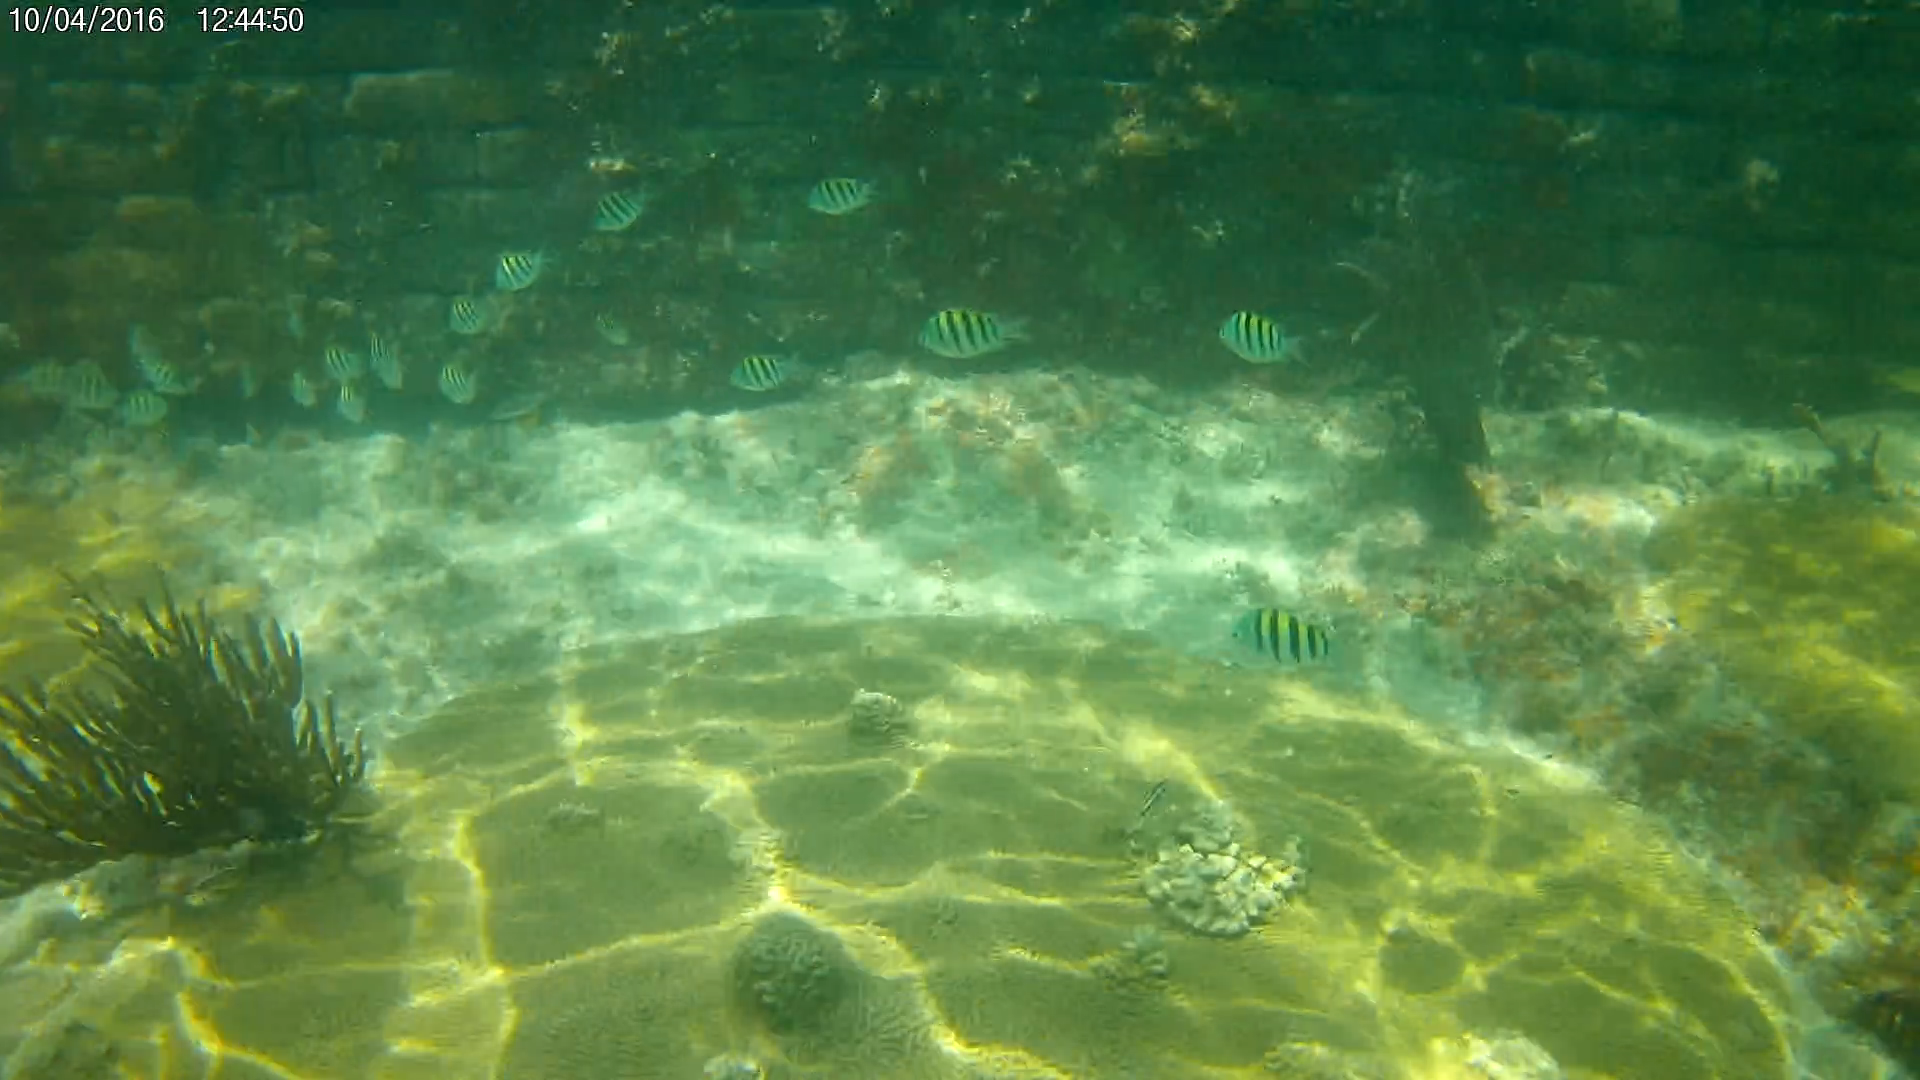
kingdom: Animalia
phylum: Chordata
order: Perciformes
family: Pomacentridae
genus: Abudefduf
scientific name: Abudefduf saxatilis
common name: Sergeant major
